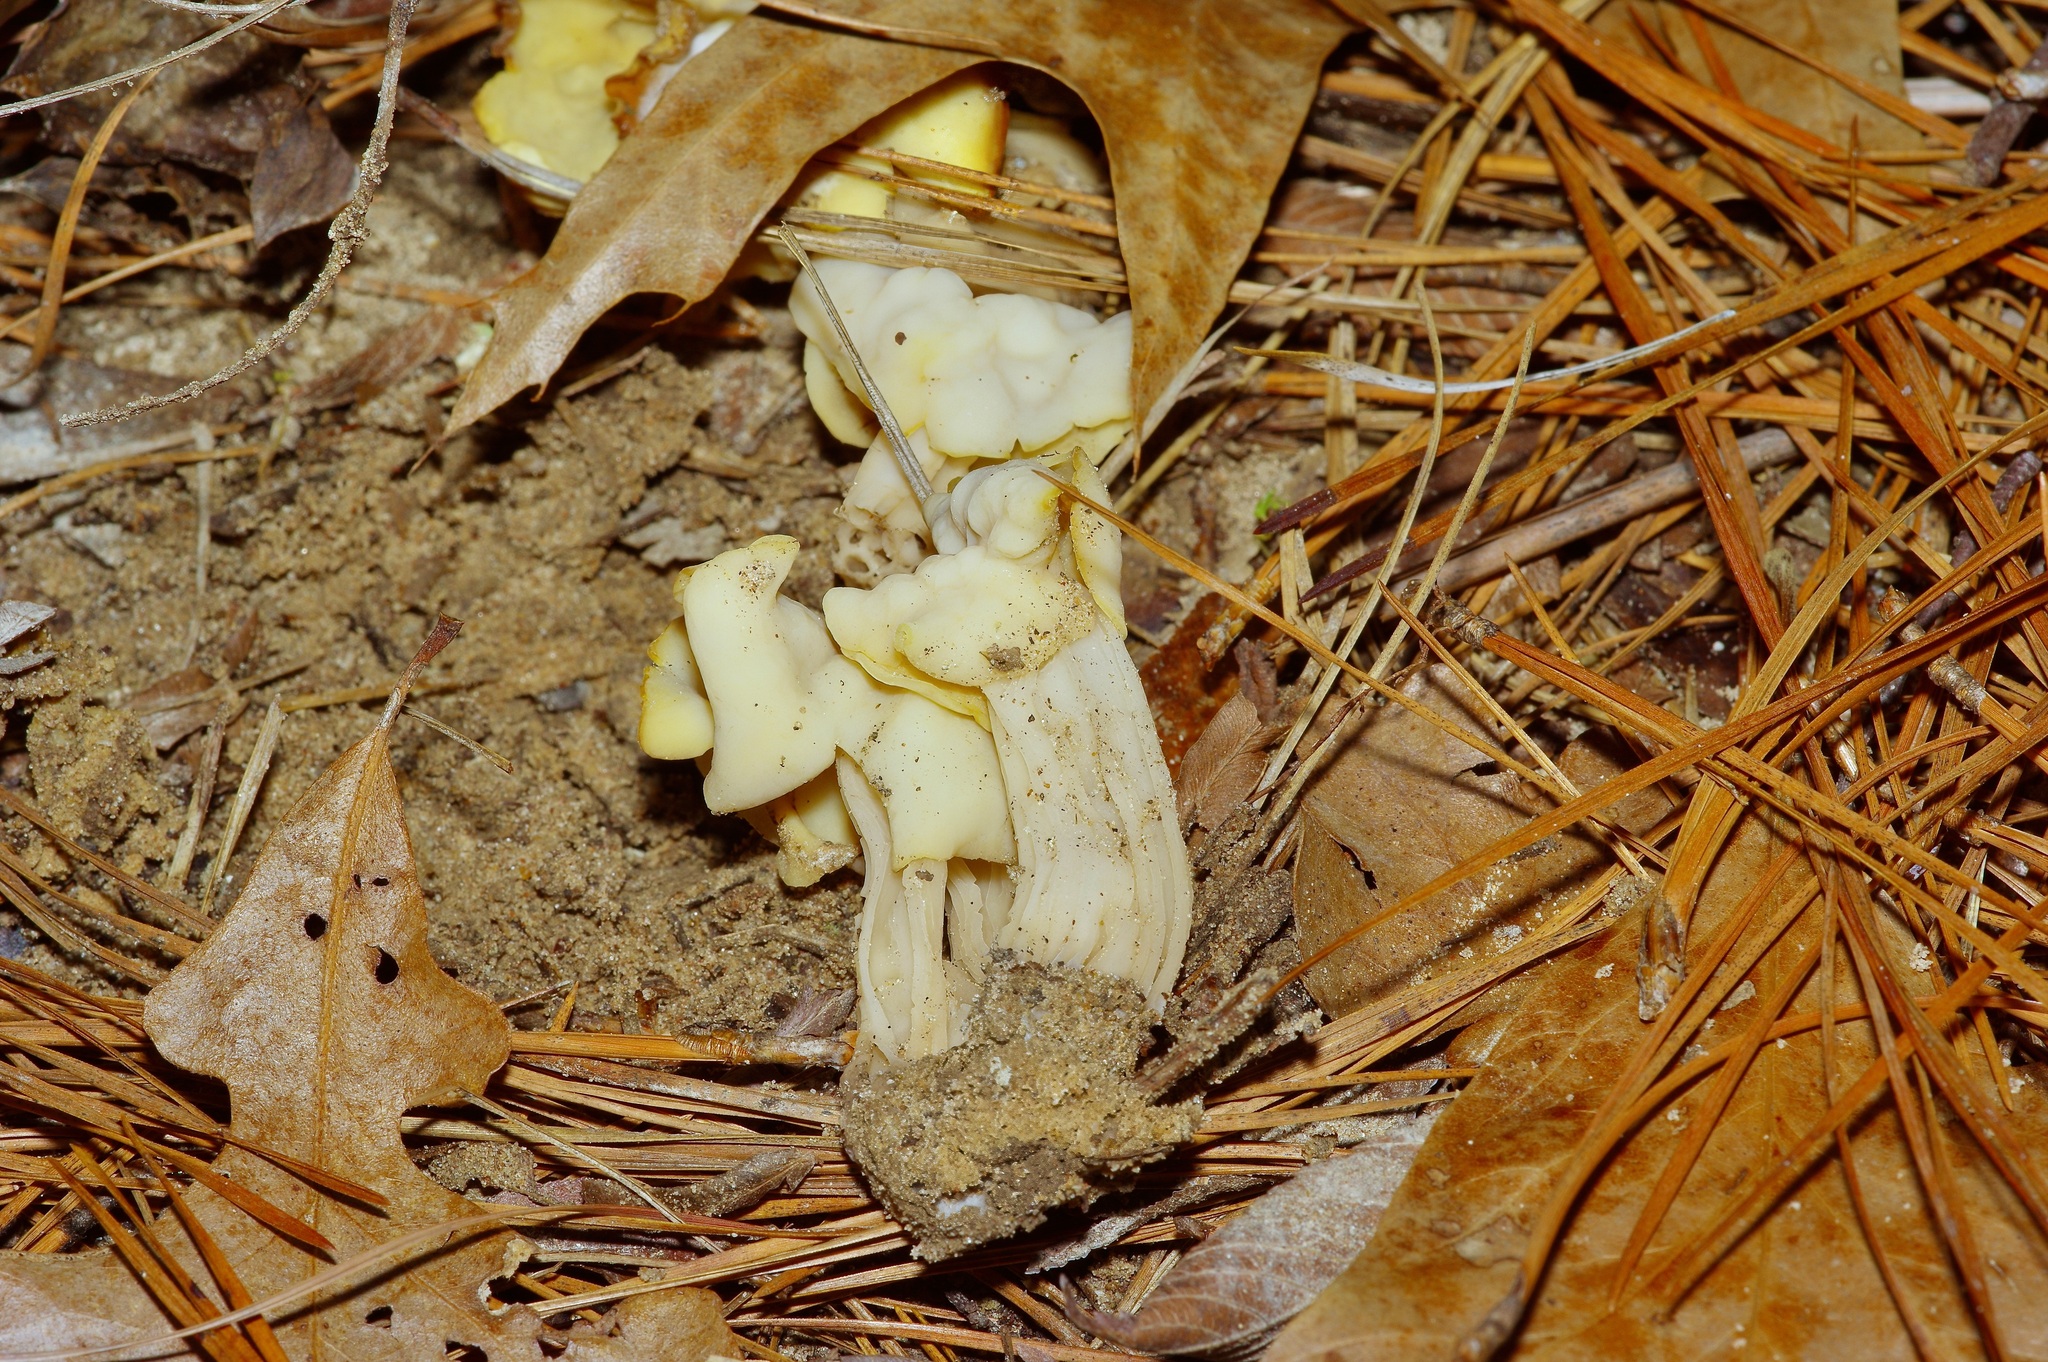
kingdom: Fungi
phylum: Ascomycota
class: Pezizomycetes
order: Pezizales
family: Helvellaceae
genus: Helvella
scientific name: Helvella crispa
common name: White saddle
